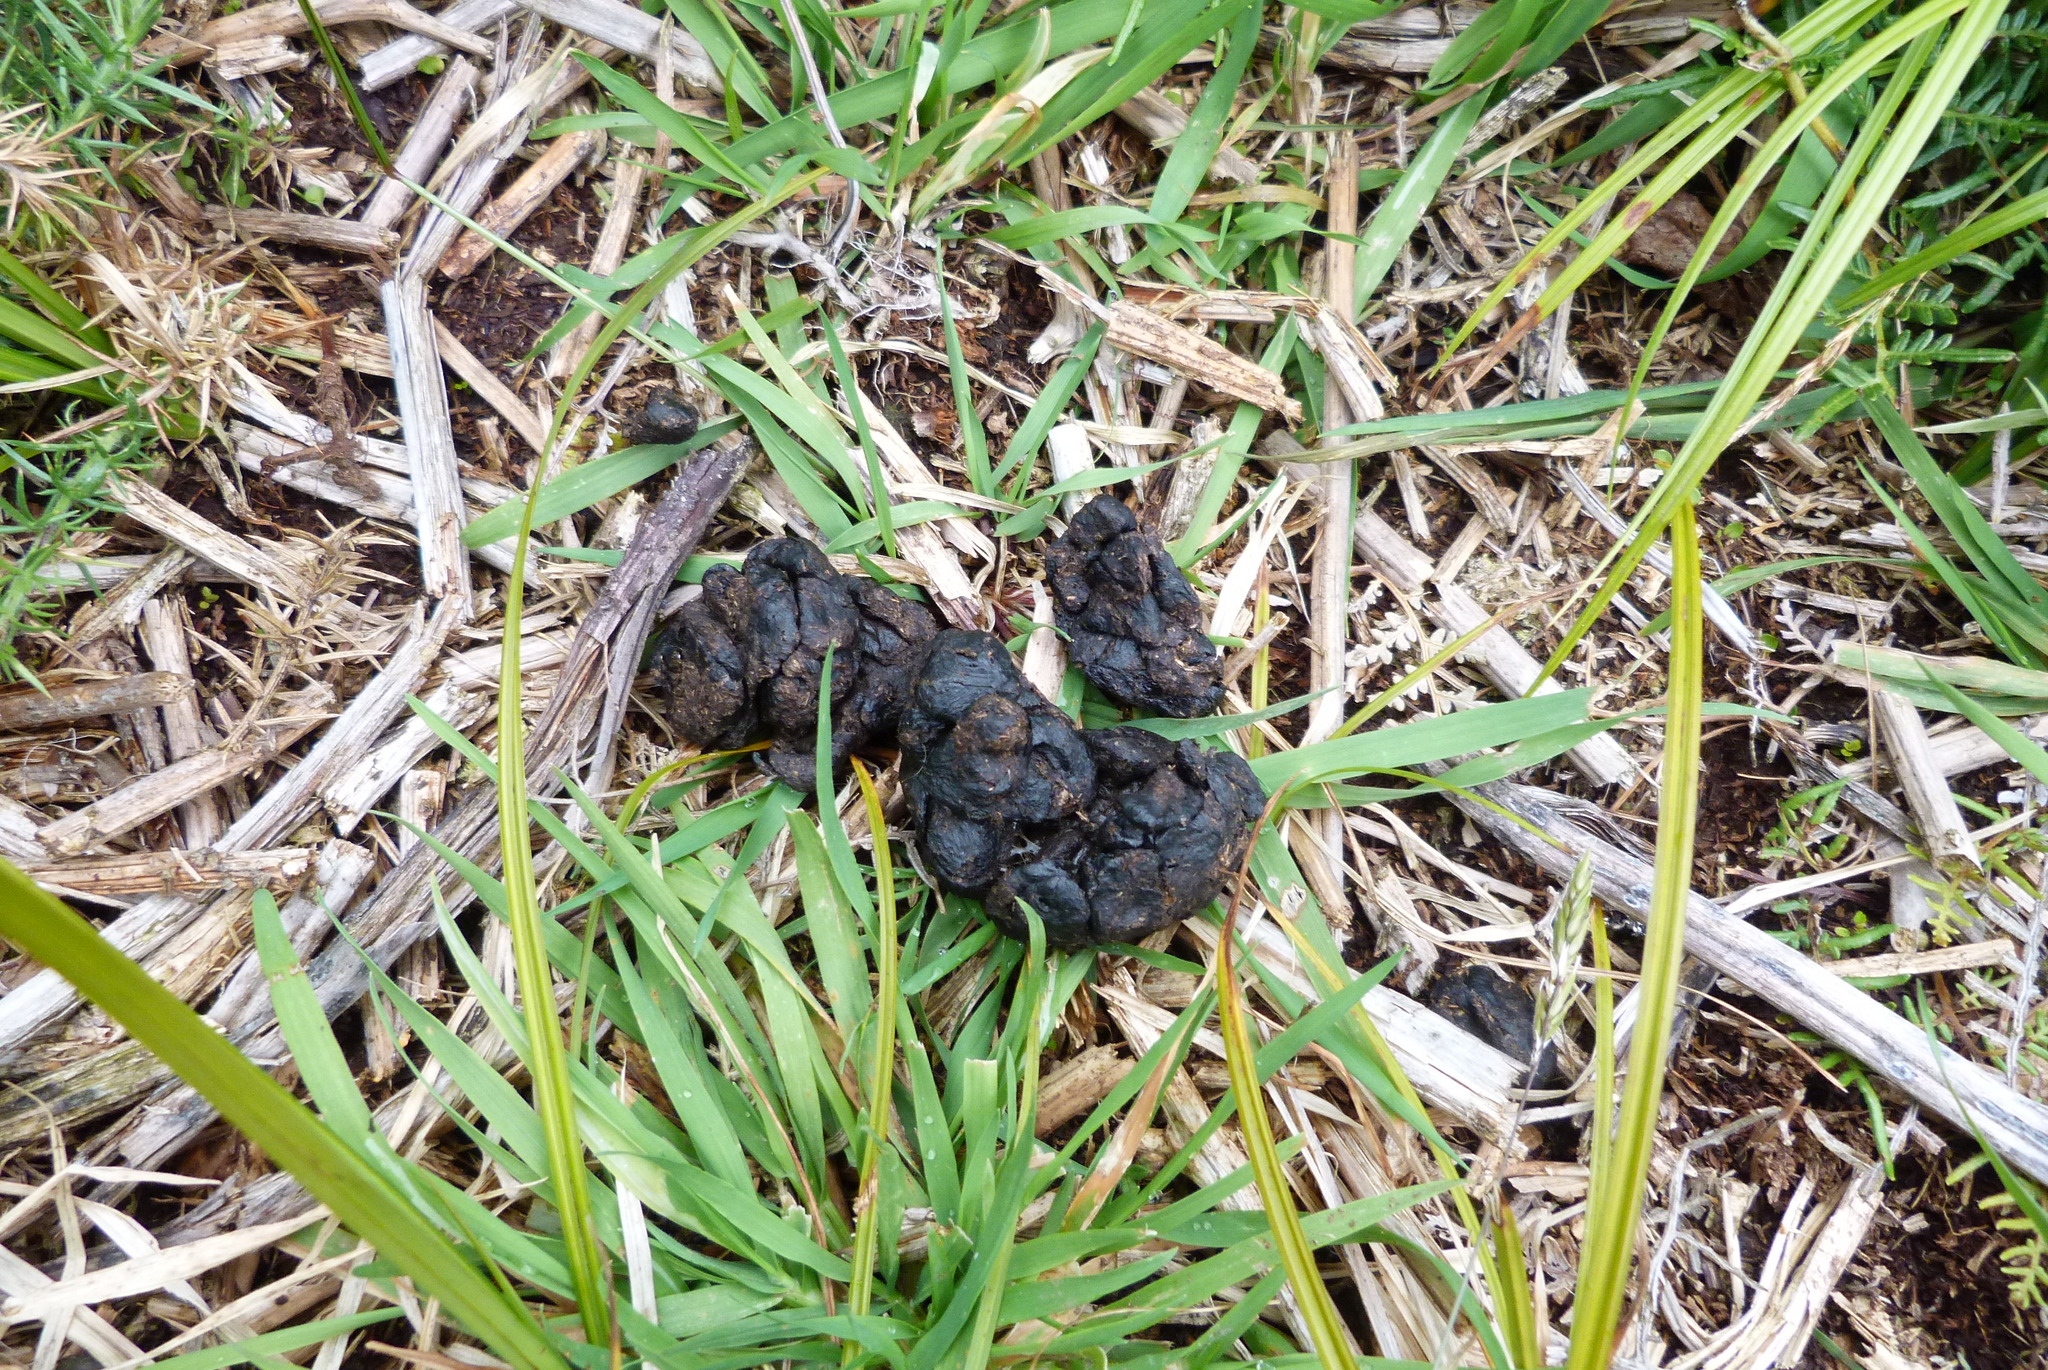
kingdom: Animalia
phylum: Chordata
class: Mammalia
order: Artiodactyla
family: Cervidae
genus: Odocoileus
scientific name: Odocoileus virginianus
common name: White-tailed deer
